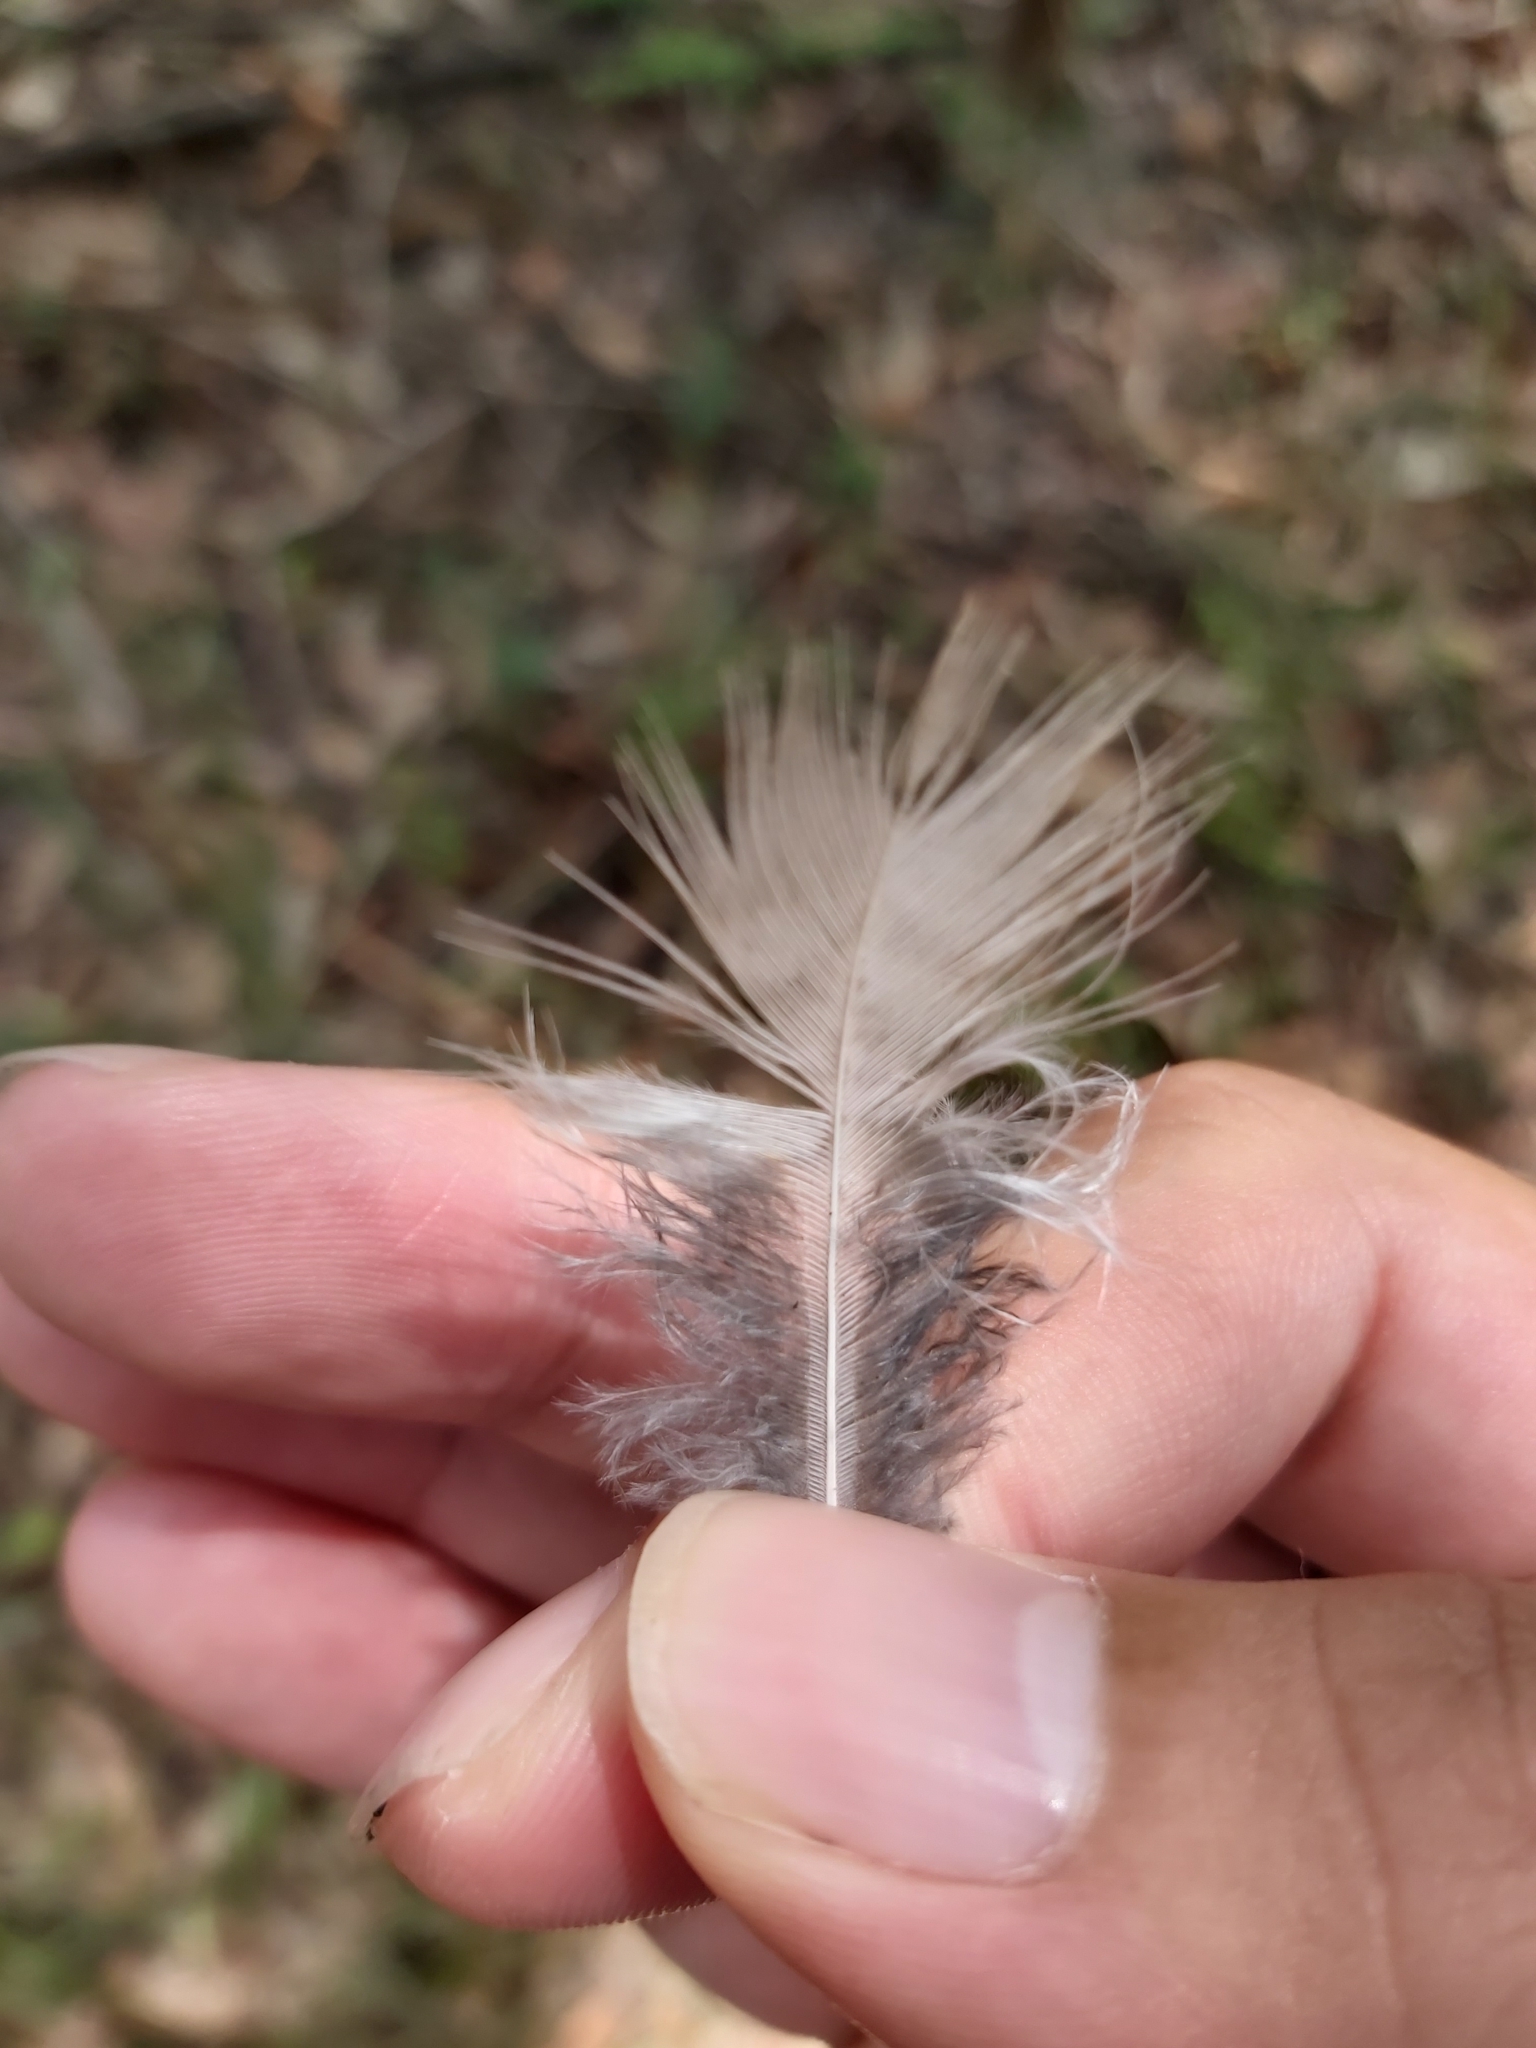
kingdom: Animalia
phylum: Chordata
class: Aves
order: Coraciiformes
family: Alcedinidae
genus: Dacelo
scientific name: Dacelo novaeguineae
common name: Laughing kookaburra
